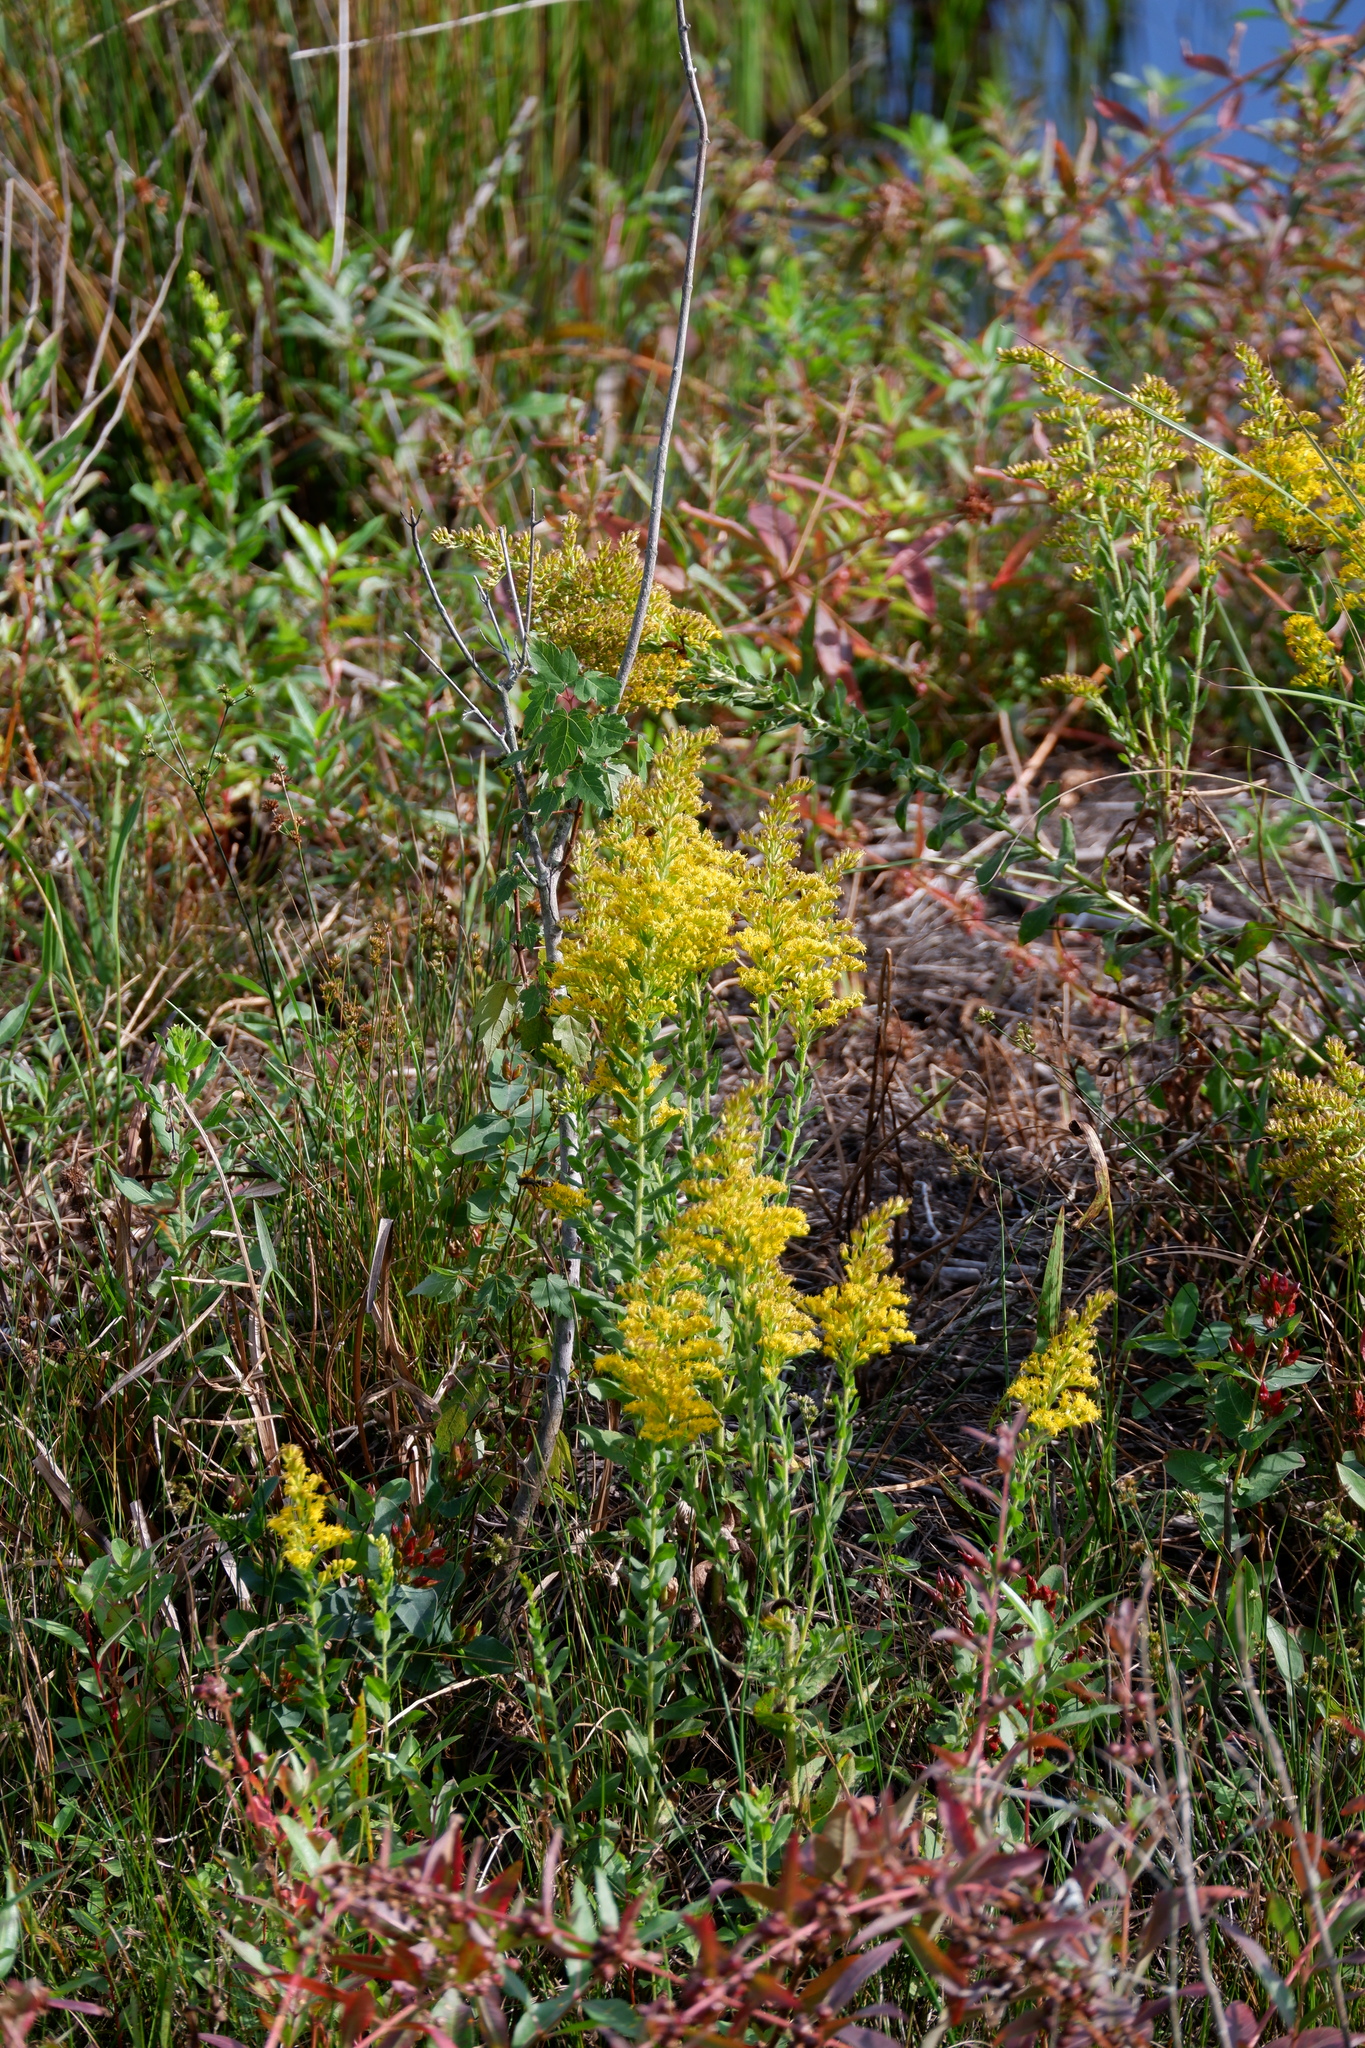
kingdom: Plantae
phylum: Tracheophyta
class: Magnoliopsida
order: Asterales
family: Asteraceae
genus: Solidago
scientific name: Solidago fistulosa
